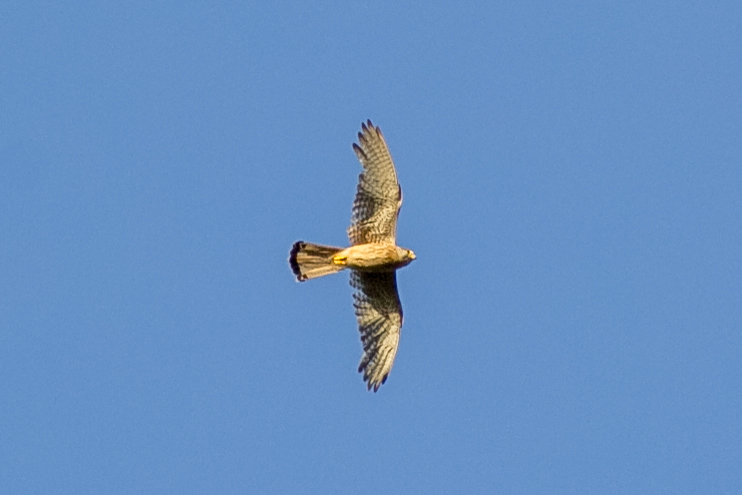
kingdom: Animalia
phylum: Chordata
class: Aves
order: Falconiformes
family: Falconidae
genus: Falco
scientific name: Falco tinnunculus
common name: Common kestrel
